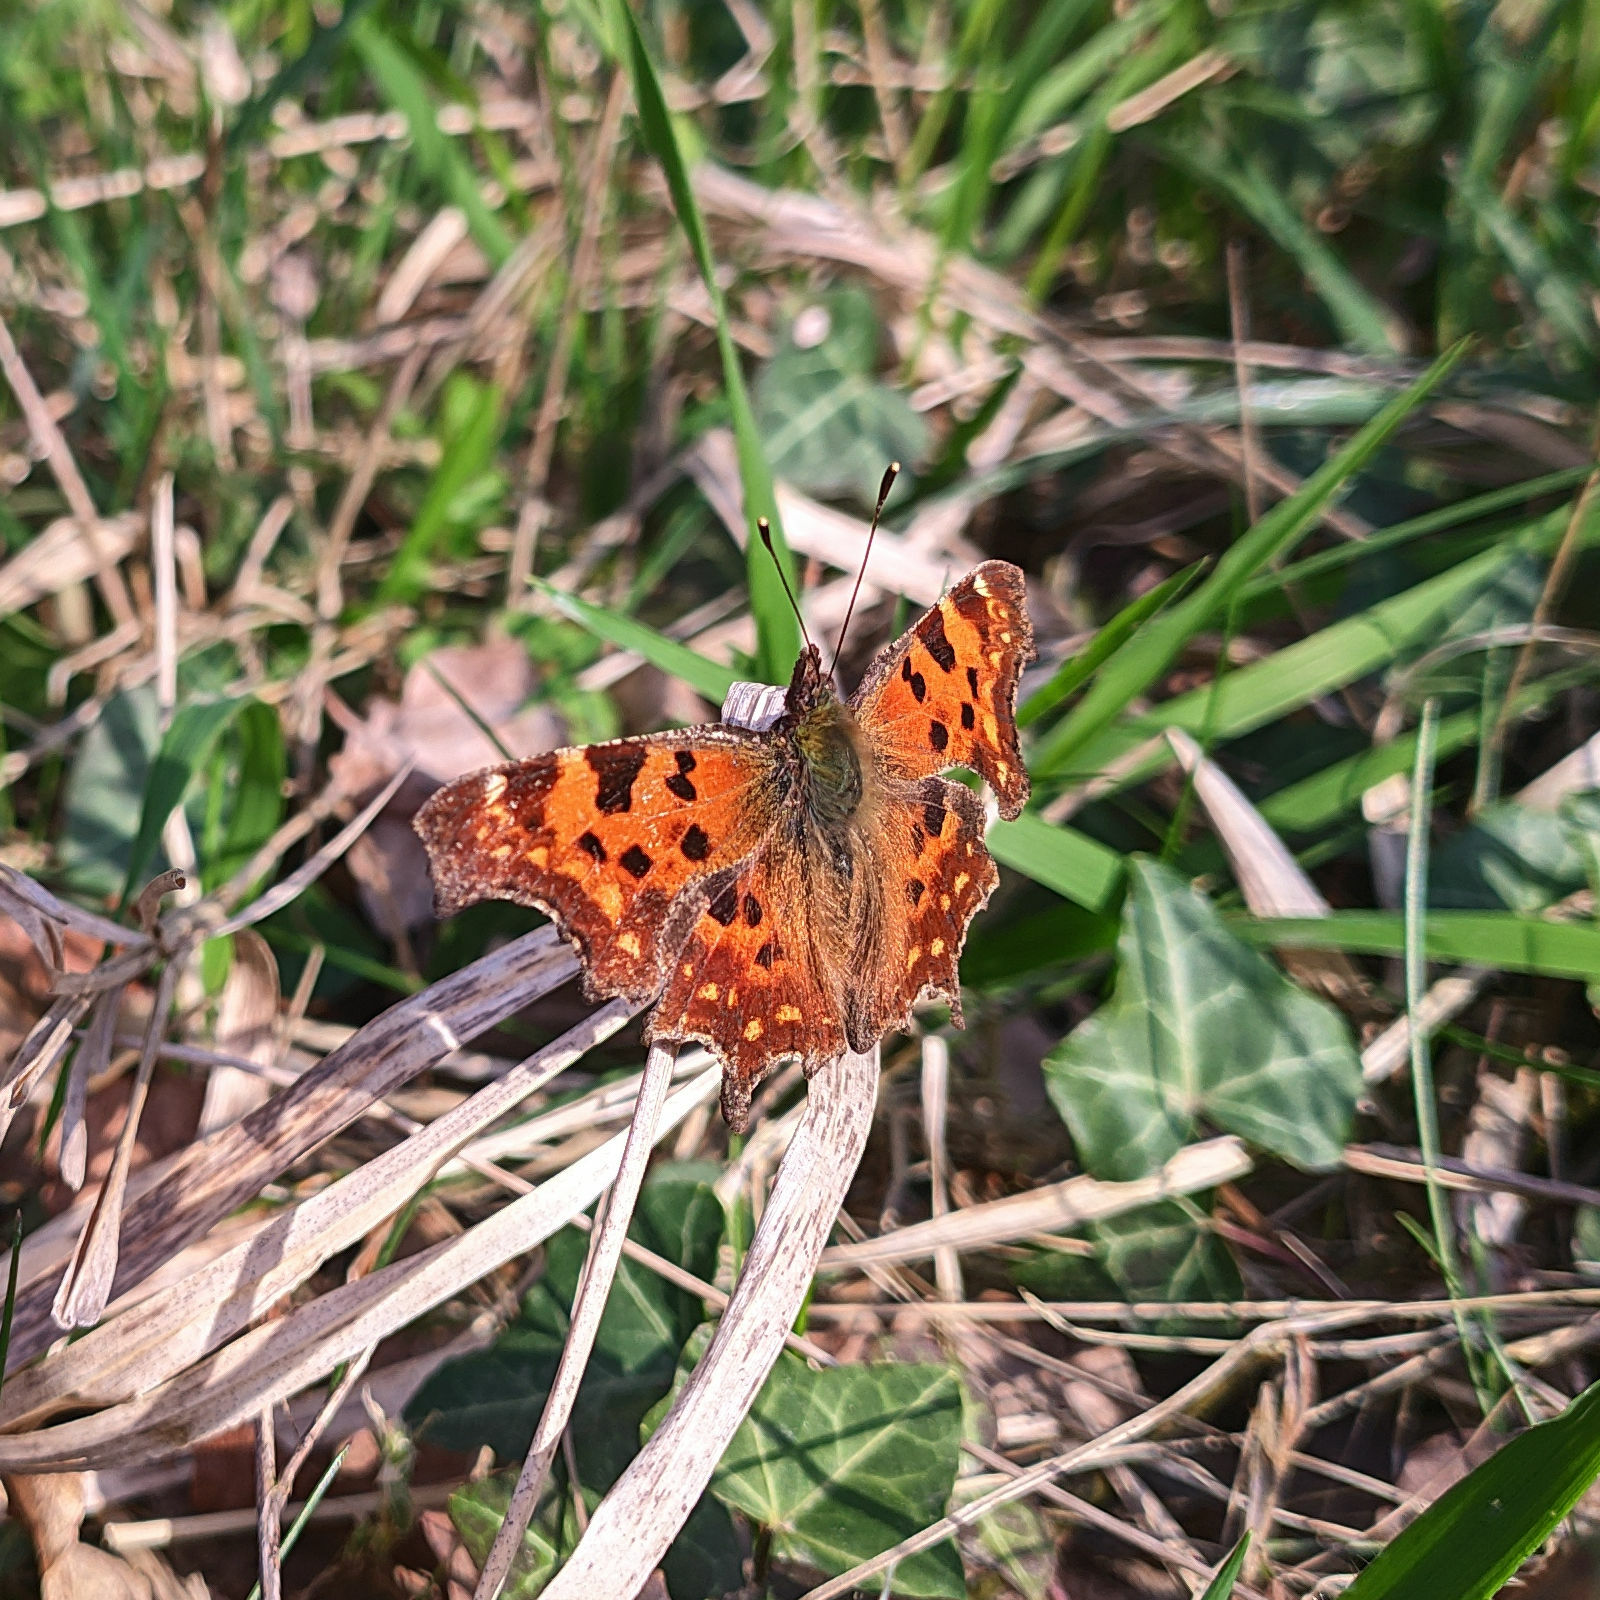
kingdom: Animalia
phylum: Arthropoda
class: Insecta
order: Lepidoptera
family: Nymphalidae
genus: Polygonia
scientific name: Polygonia c-album
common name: Comma
